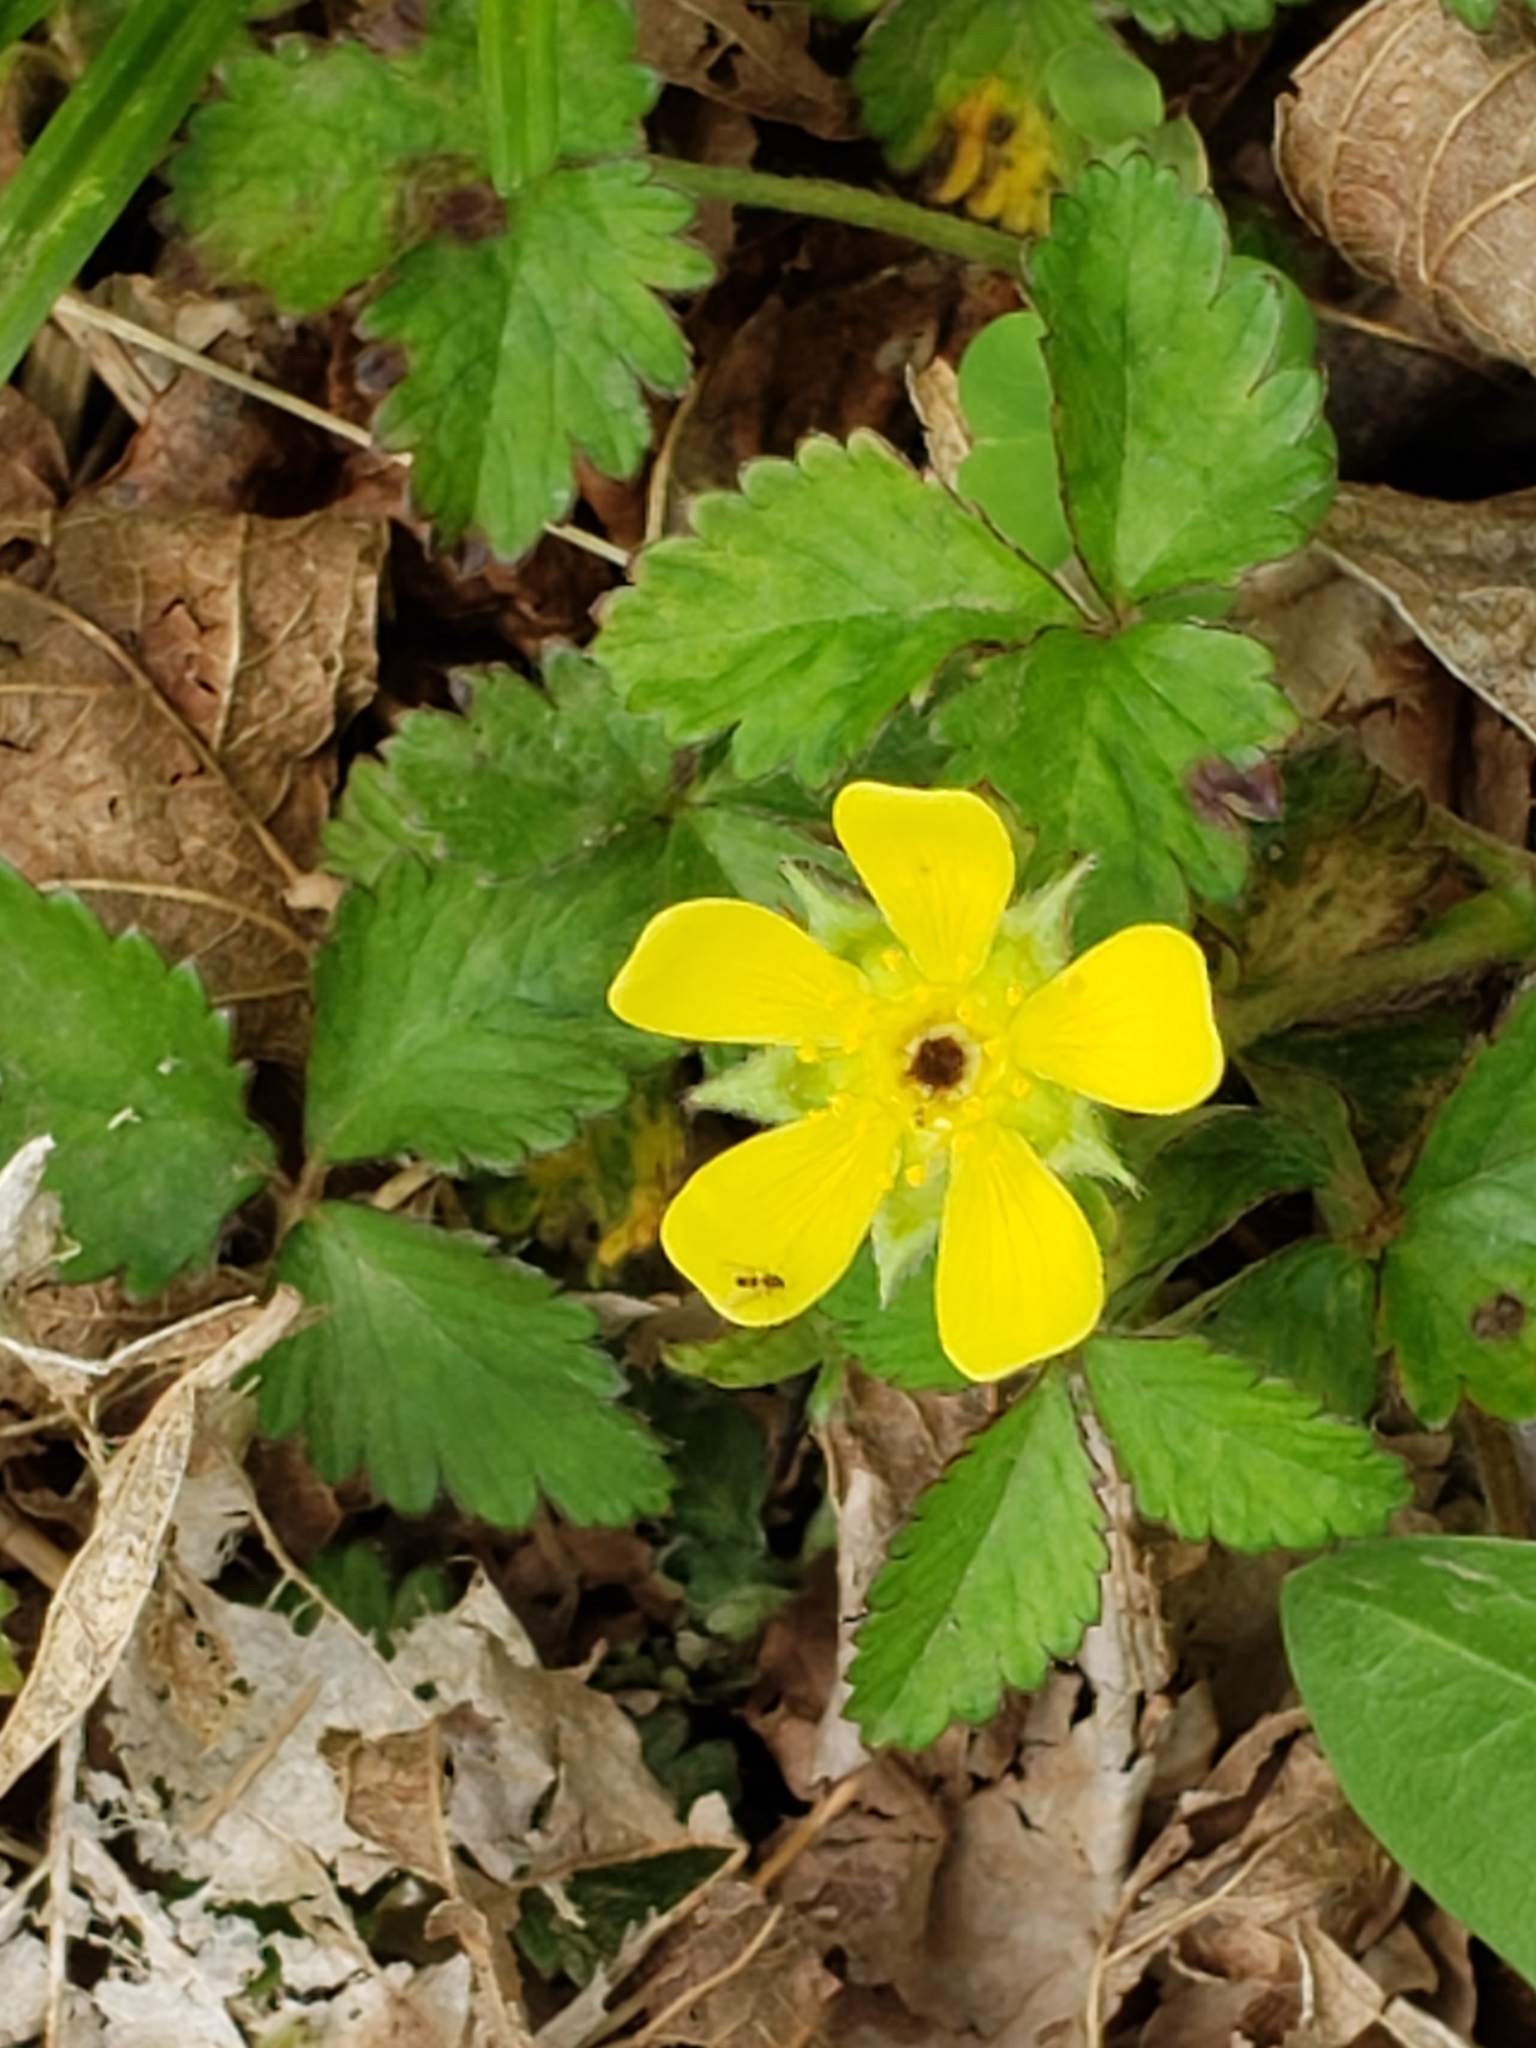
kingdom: Plantae
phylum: Tracheophyta
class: Magnoliopsida
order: Rosales
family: Rosaceae
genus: Potentilla
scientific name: Potentilla indica
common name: Yellow-flowered strawberry
